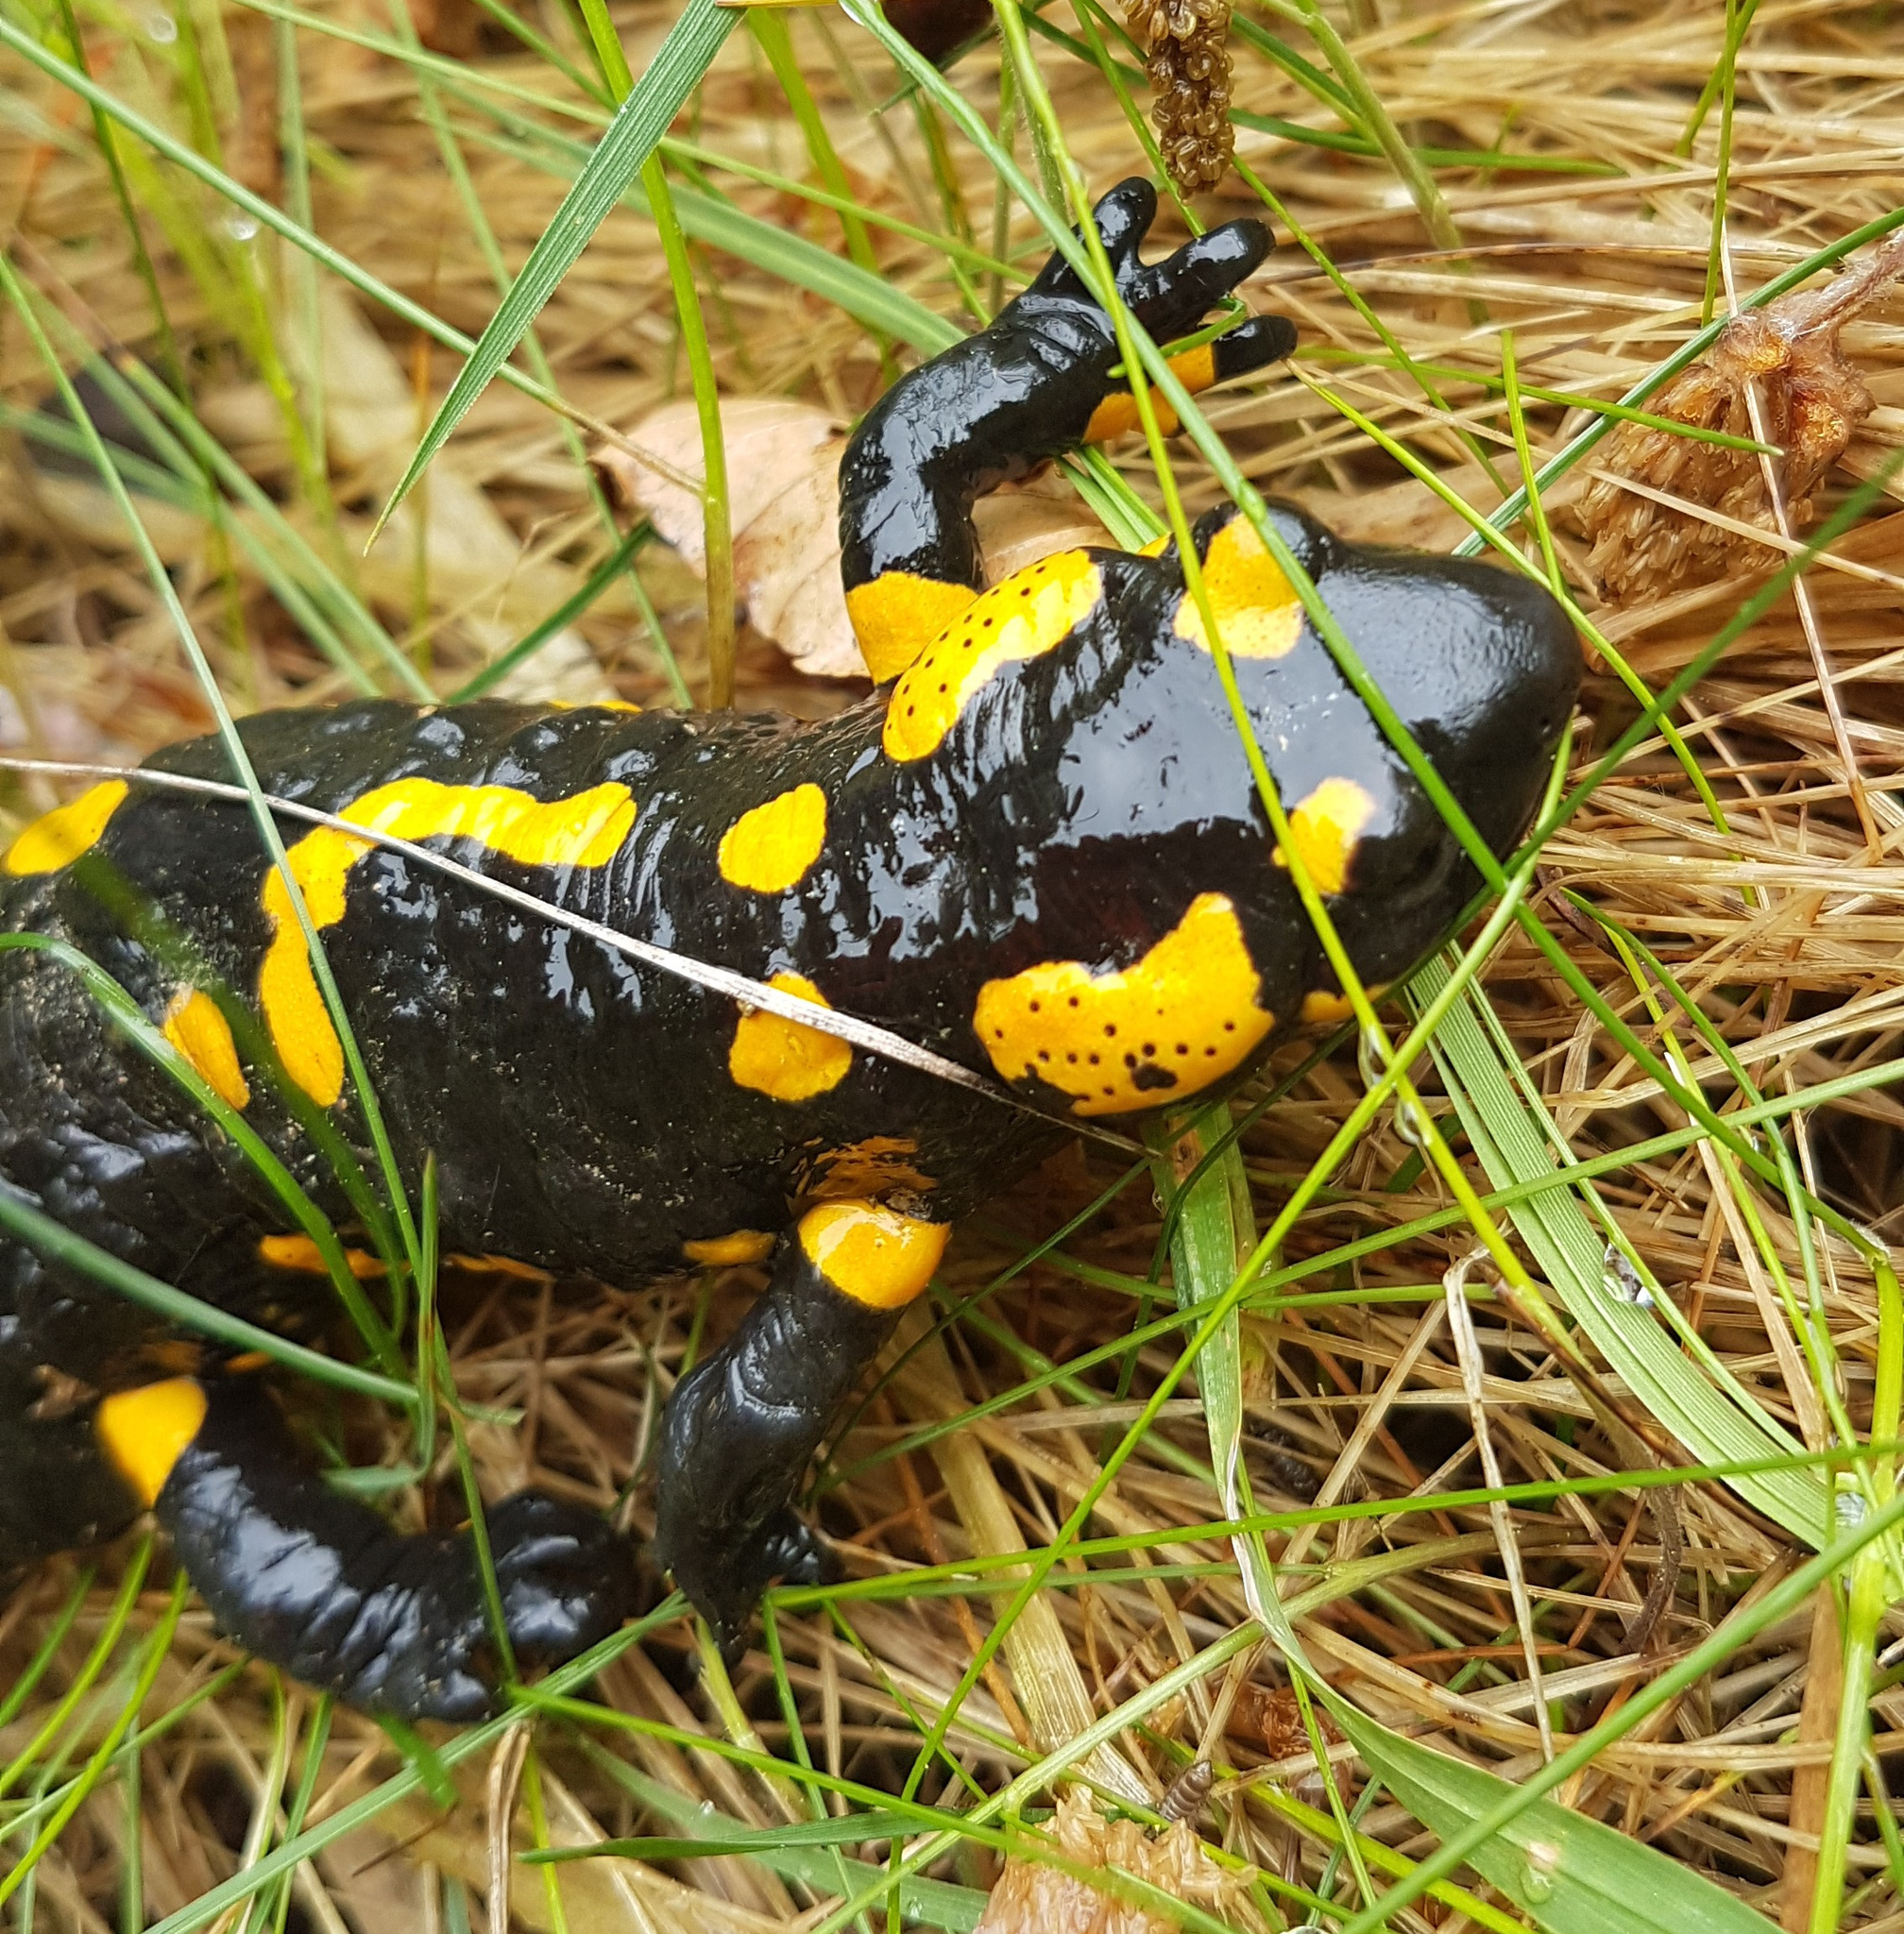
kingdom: Animalia
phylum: Chordata
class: Amphibia
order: Caudata
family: Salamandridae
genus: Salamandra
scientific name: Salamandra salamandra
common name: Fire salamander
